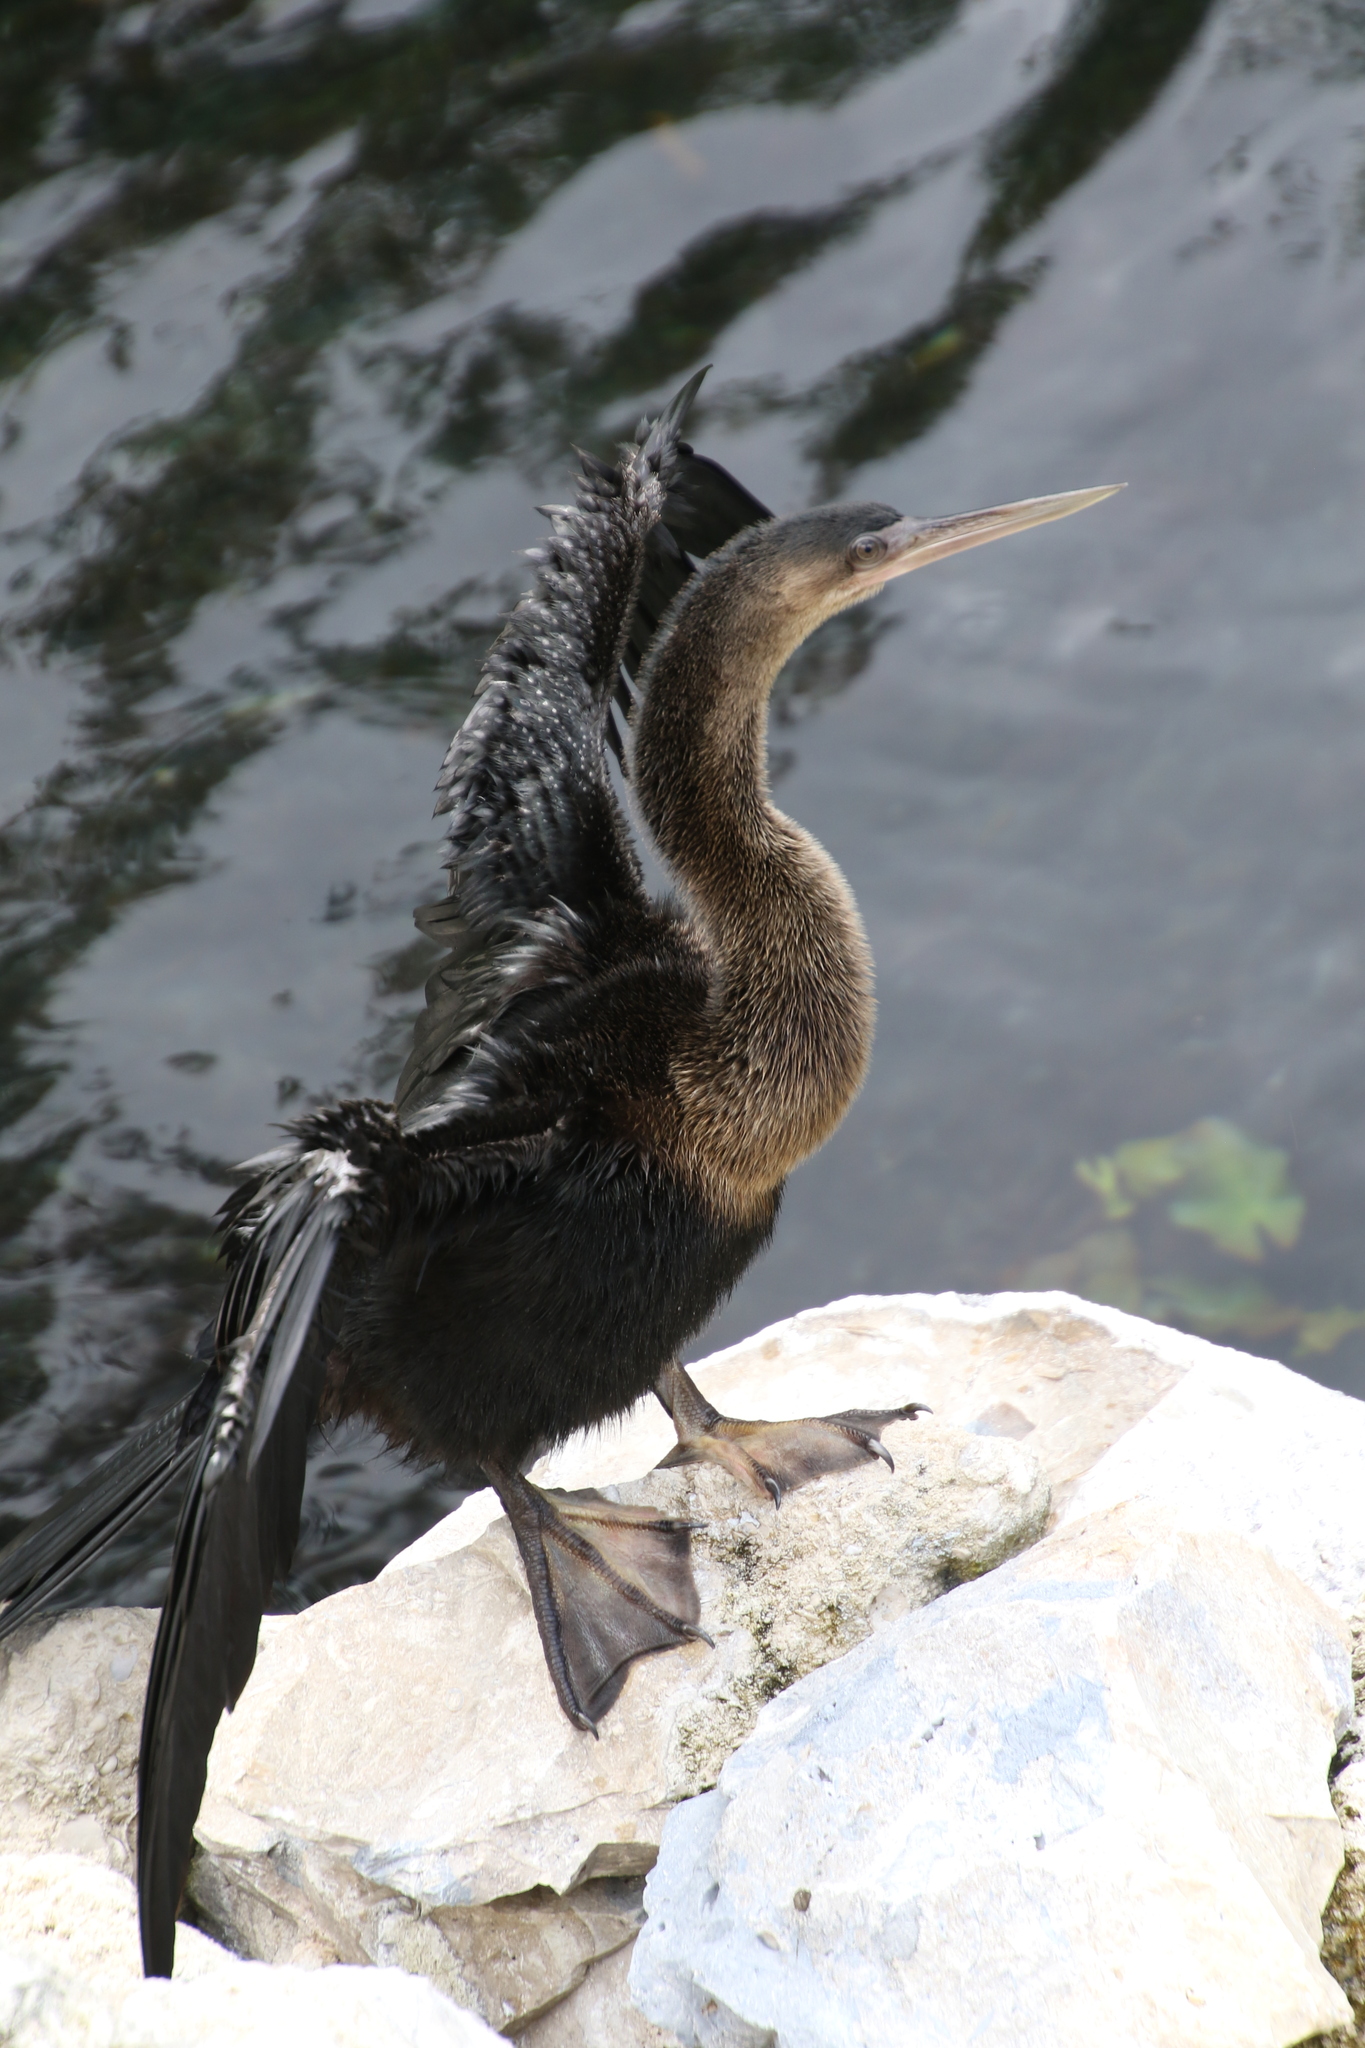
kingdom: Animalia
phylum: Chordata
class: Aves
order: Suliformes
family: Anhingidae
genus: Anhinga
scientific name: Anhinga anhinga
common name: Anhinga
